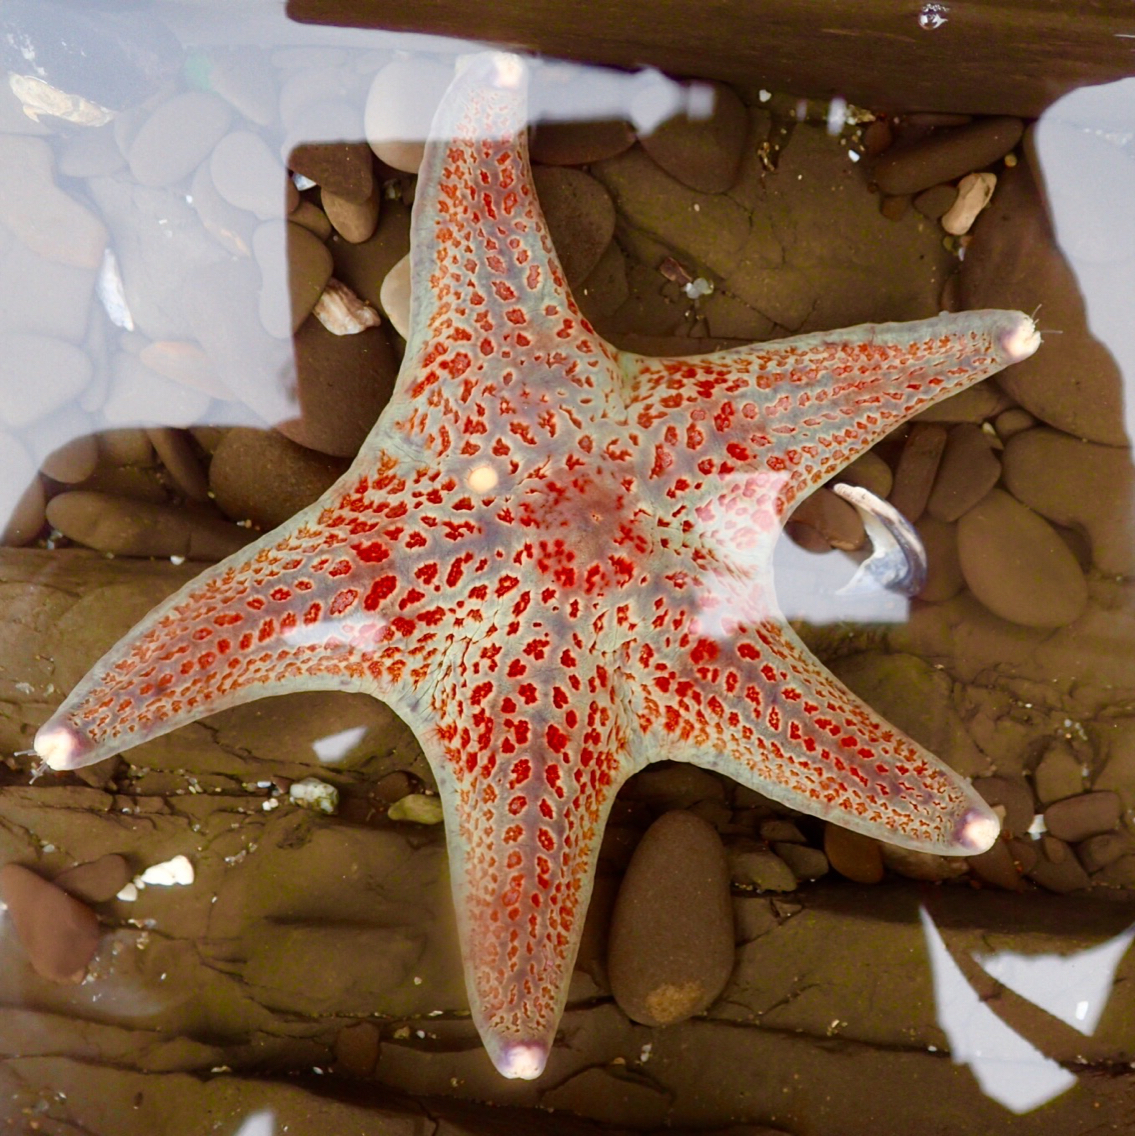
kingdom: Animalia
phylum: Echinodermata
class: Asteroidea
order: Valvatida
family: Asteropseidae
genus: Dermasterias
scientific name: Dermasterias imbricata
